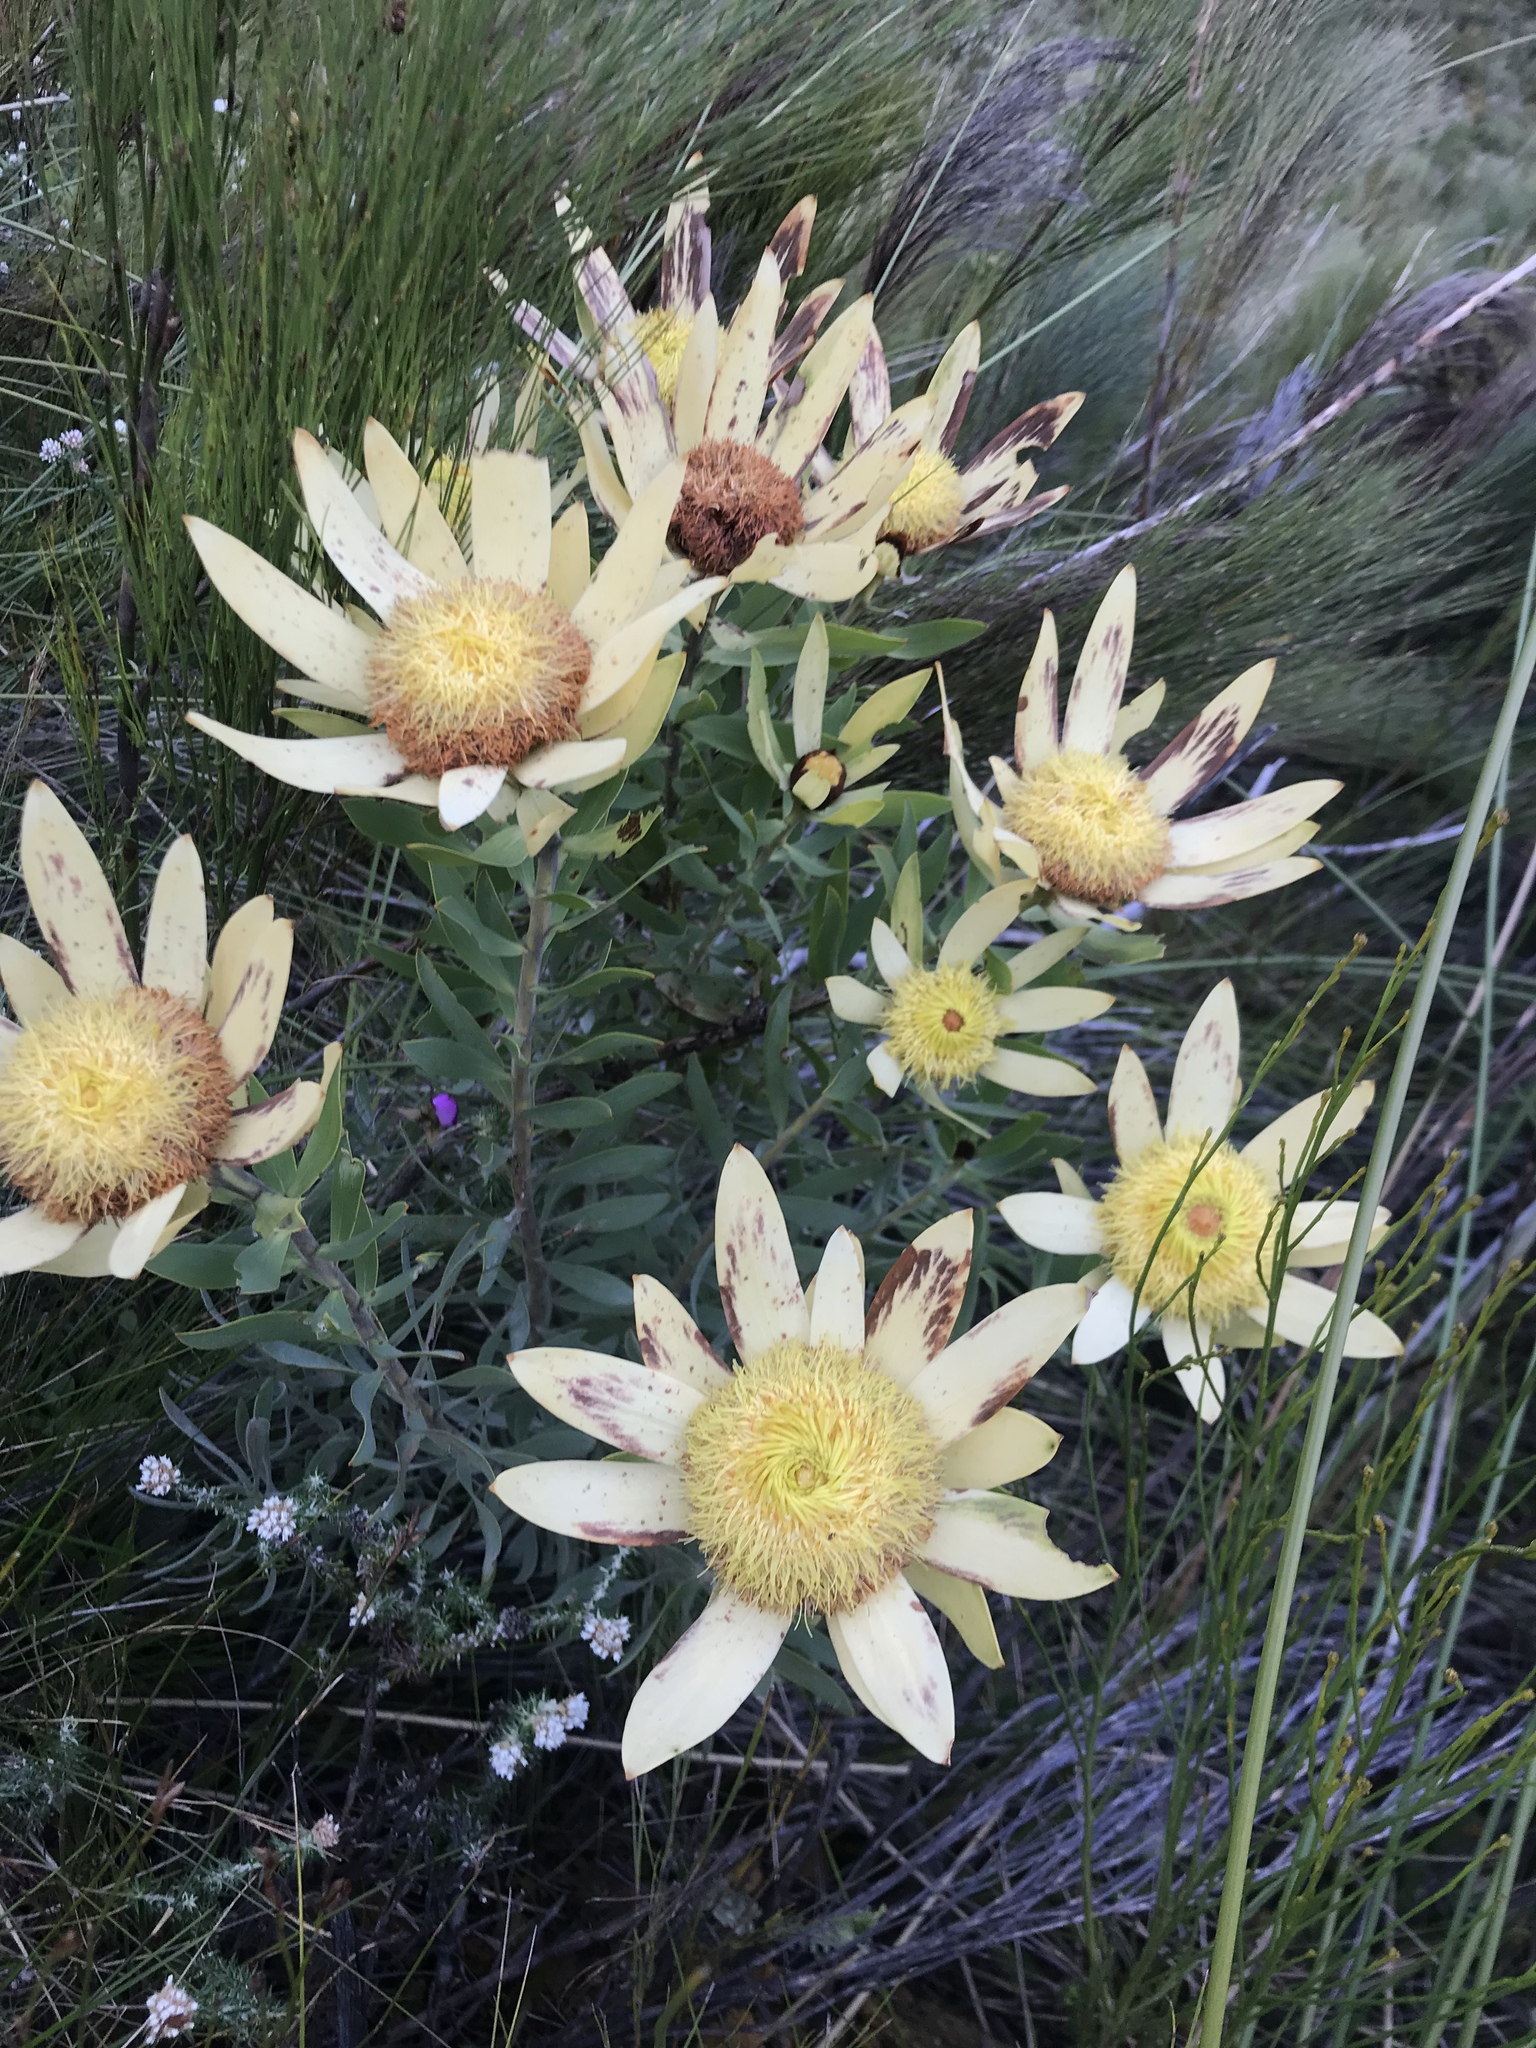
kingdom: Plantae
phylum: Tracheophyta
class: Magnoliopsida
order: Proteales
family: Proteaceae
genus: Leucadendron
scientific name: Leucadendron sessile
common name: Western sunbush
